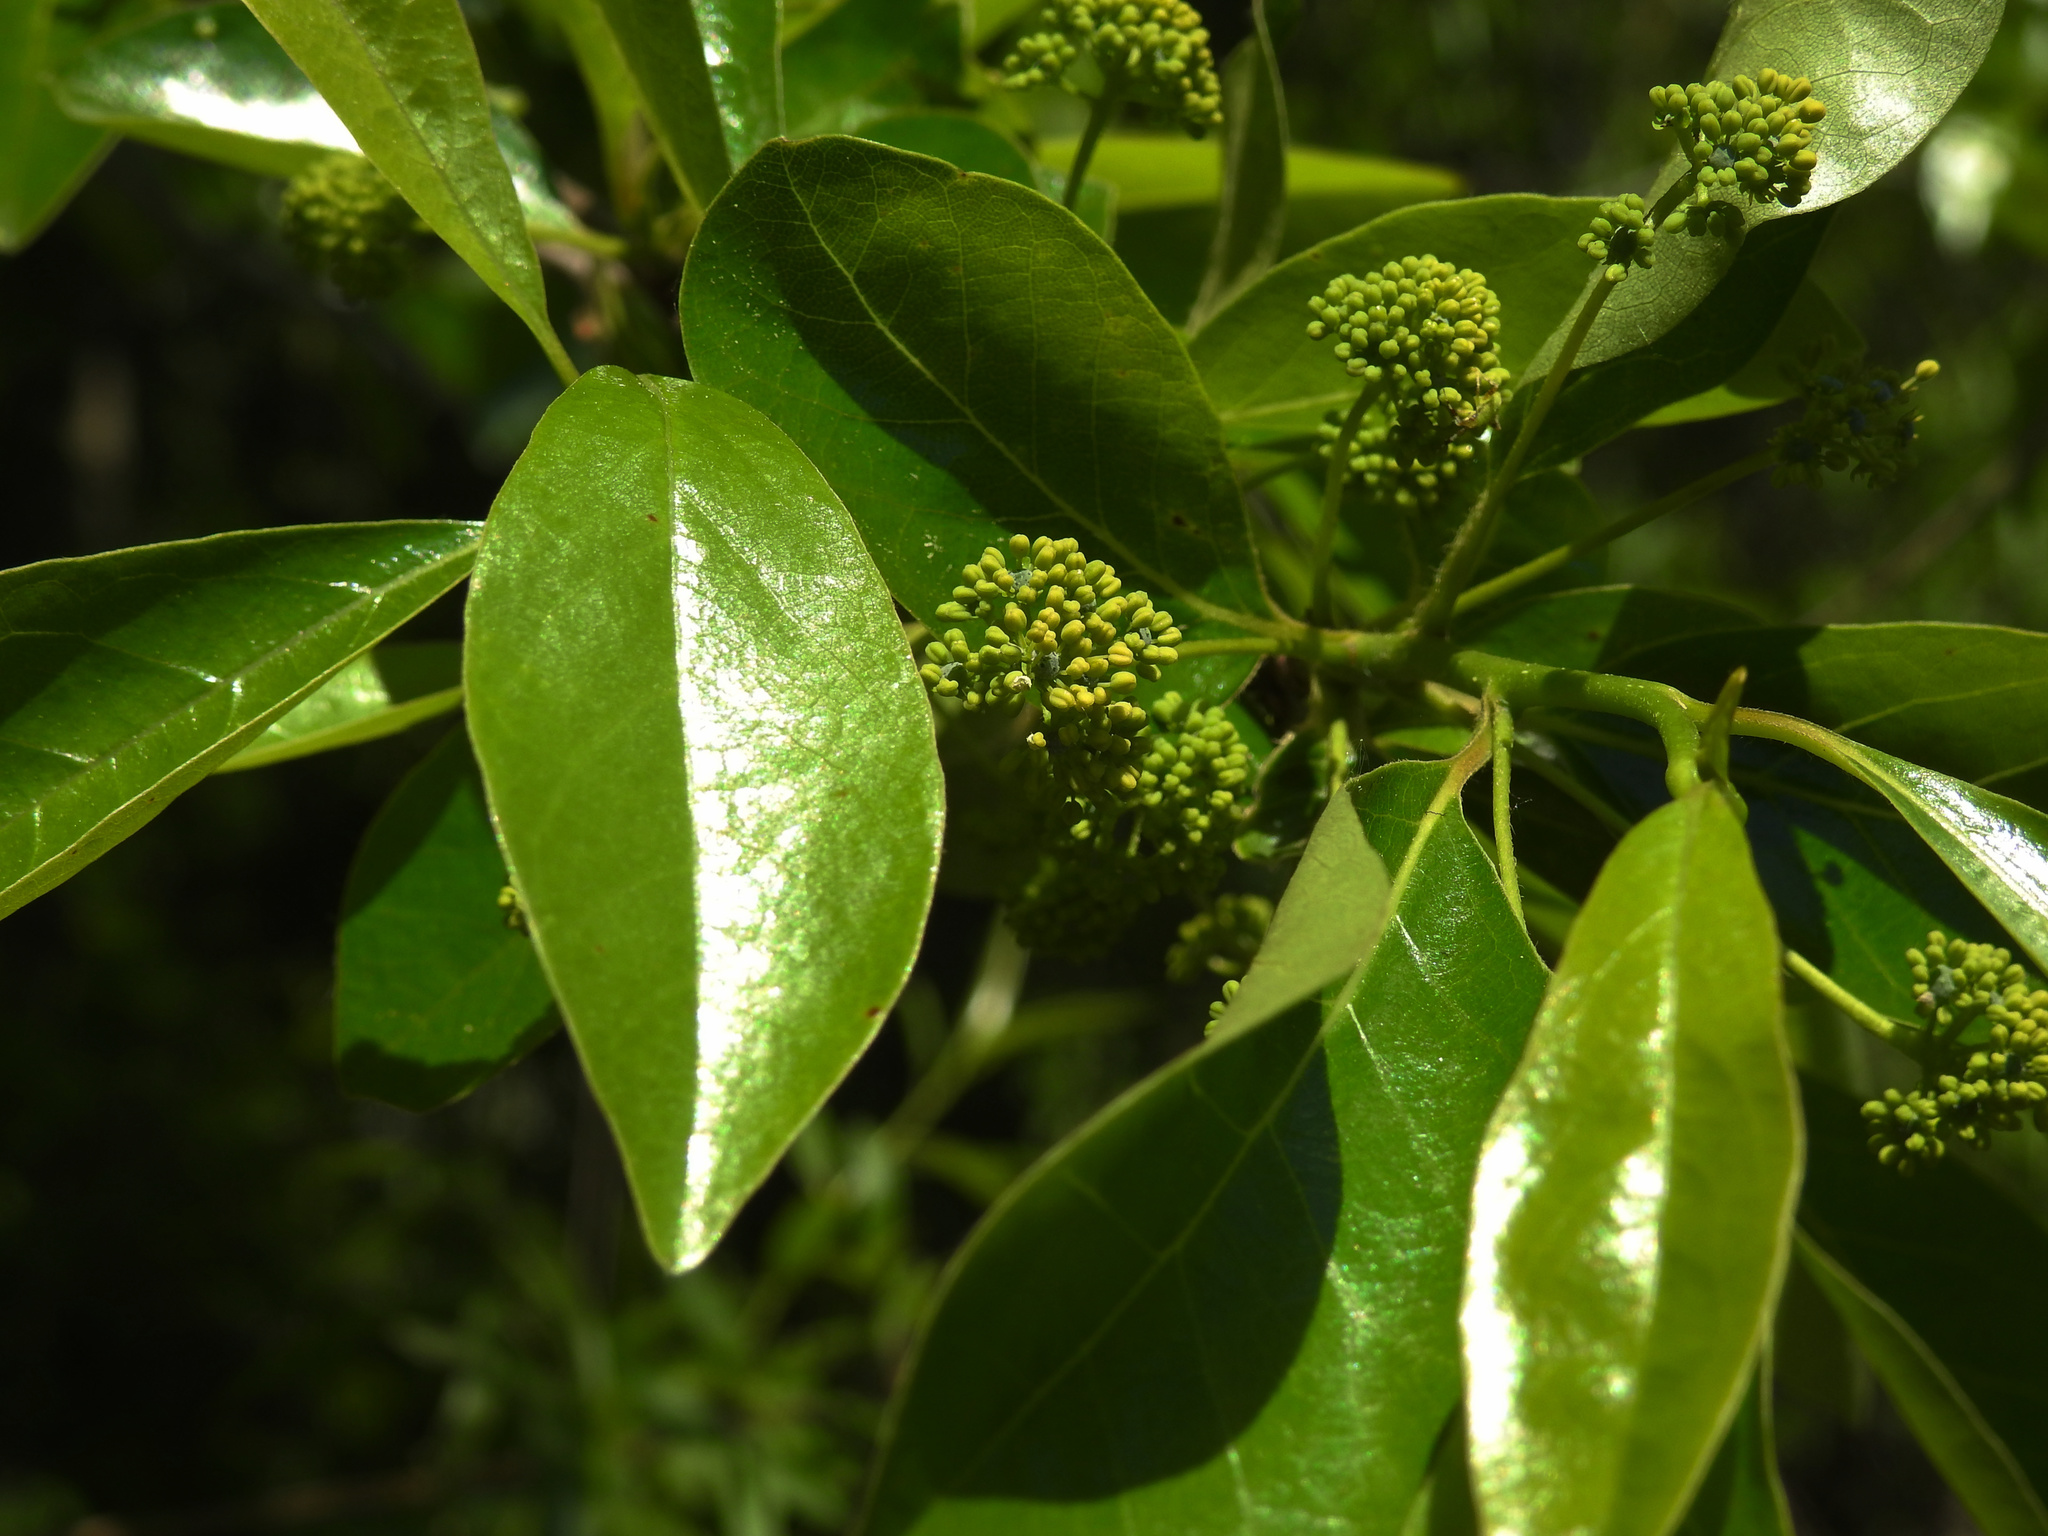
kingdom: Plantae
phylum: Tracheophyta
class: Magnoliopsida
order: Cornales
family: Nyssaceae
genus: Nyssa
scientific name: Nyssa sylvatica
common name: Black tupelo
